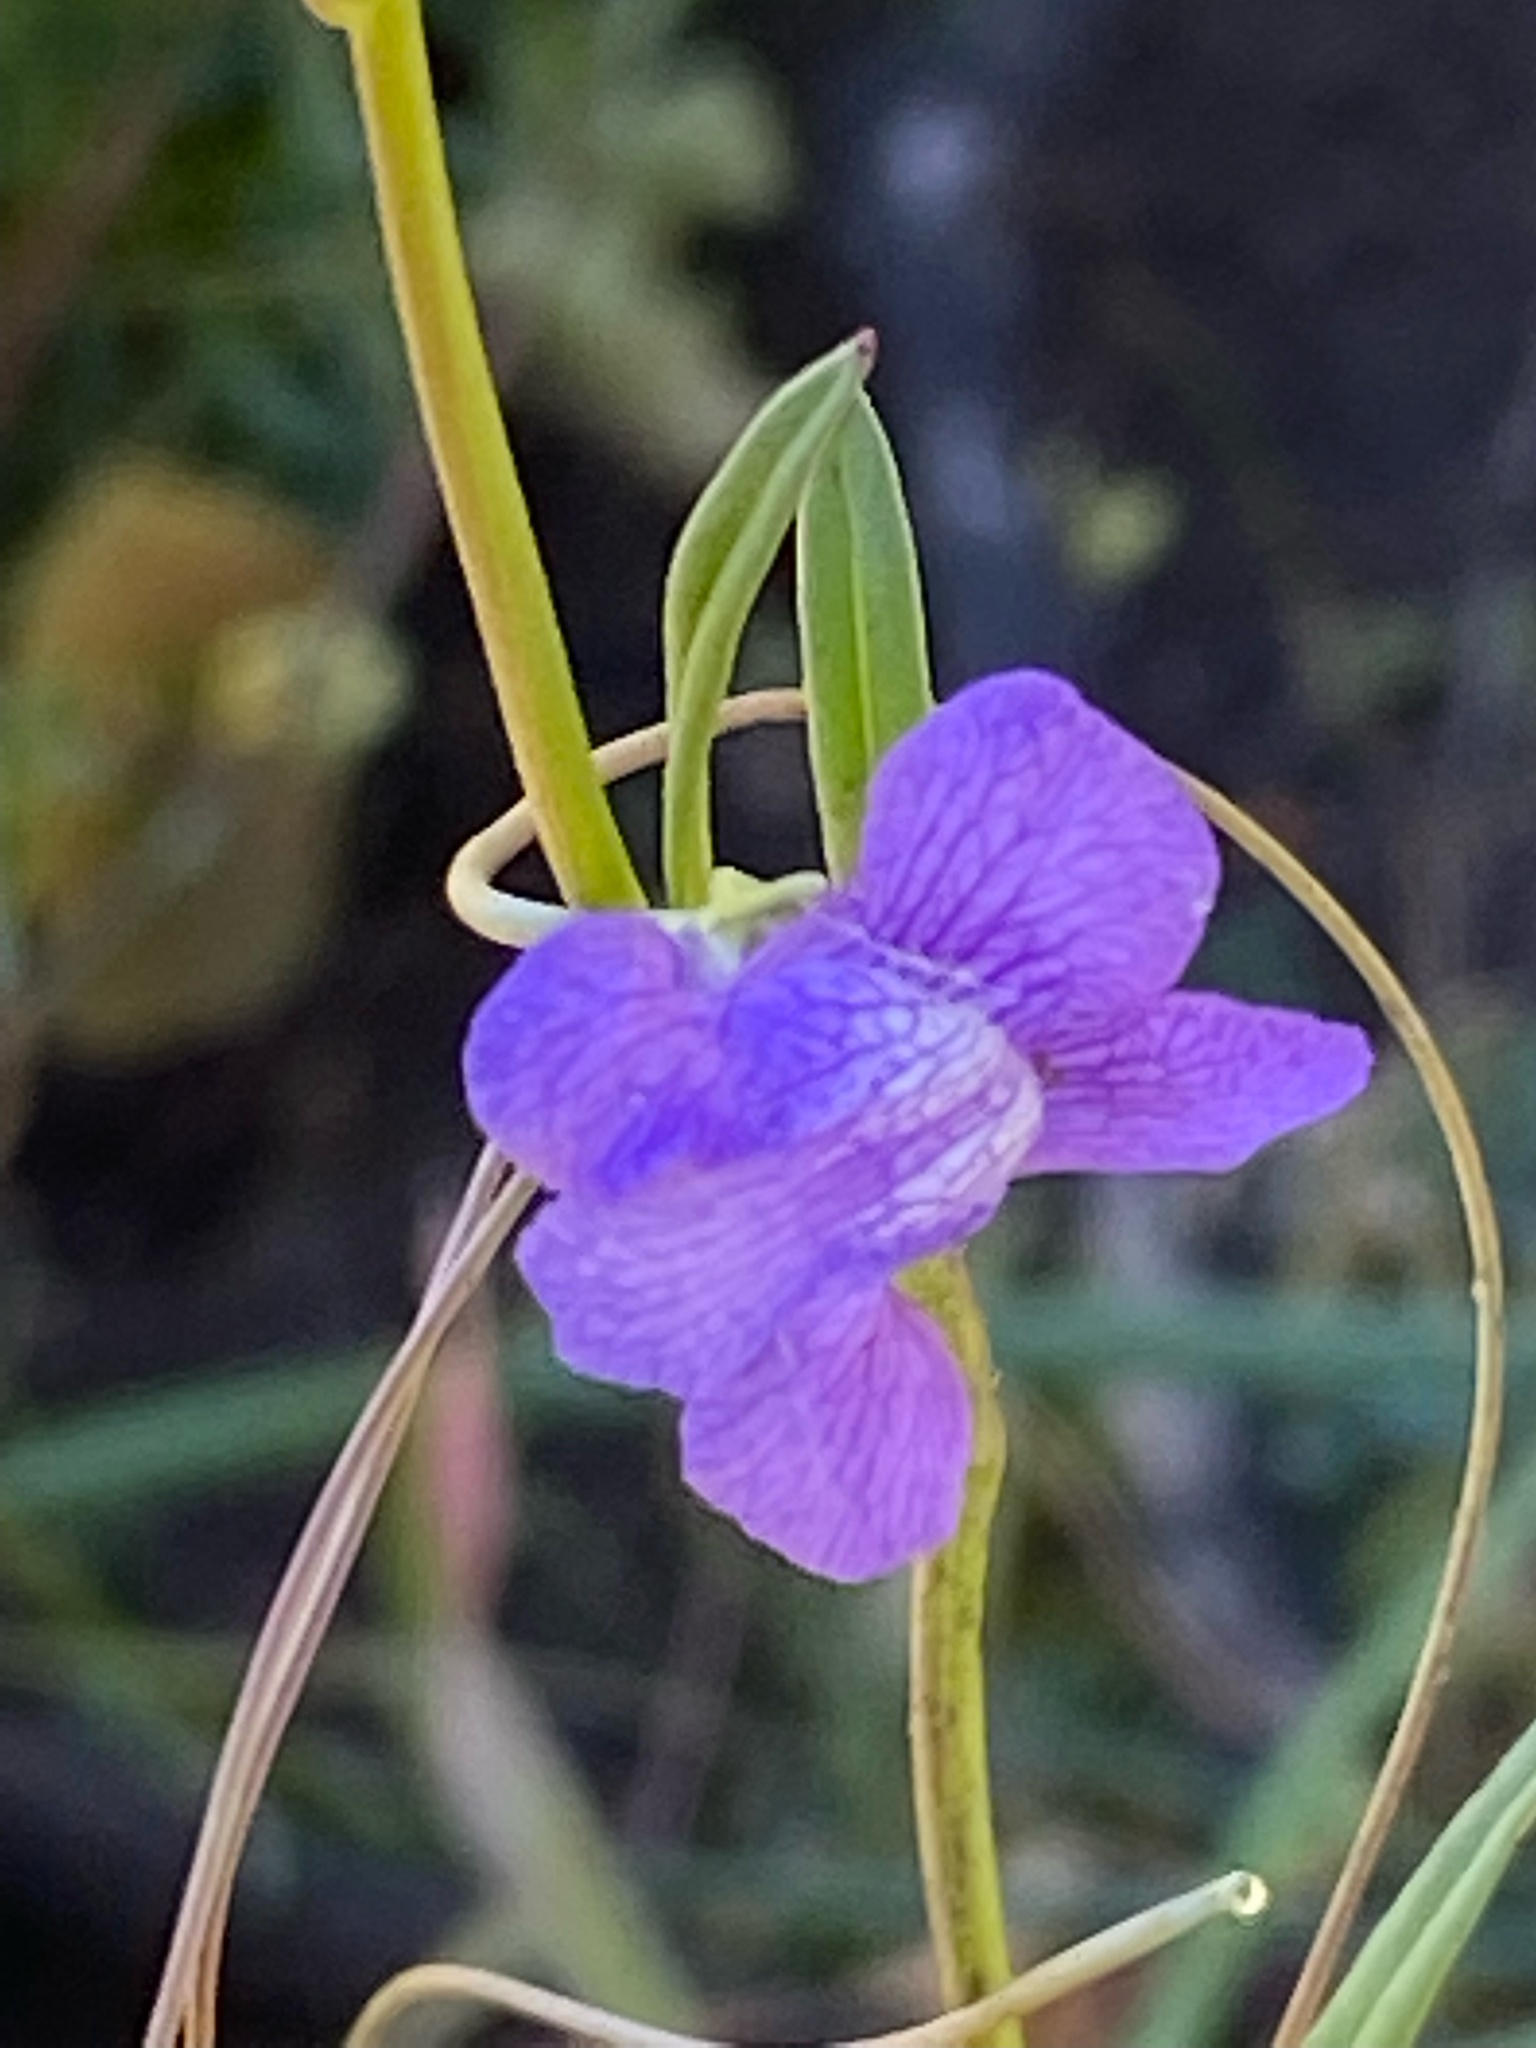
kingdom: Plantae
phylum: Tracheophyta
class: Magnoliopsida
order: Lamiales
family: Plantaginaceae
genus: Neogaerrhinum
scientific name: Neogaerrhinum strictum
